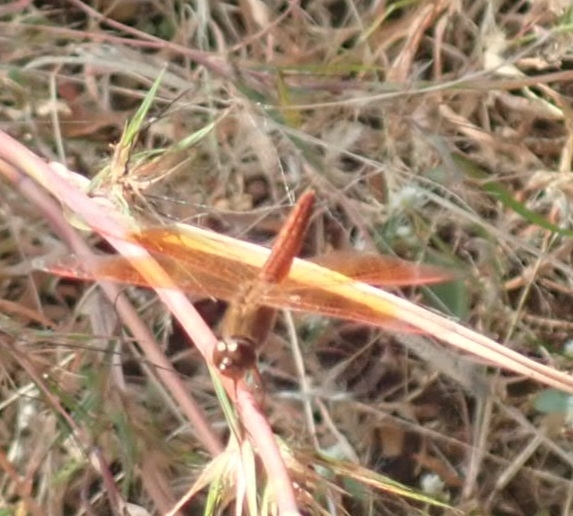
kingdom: Animalia
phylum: Arthropoda
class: Insecta
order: Odonata
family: Libellulidae
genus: Brachythemis
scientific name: Brachythemis contaminata
